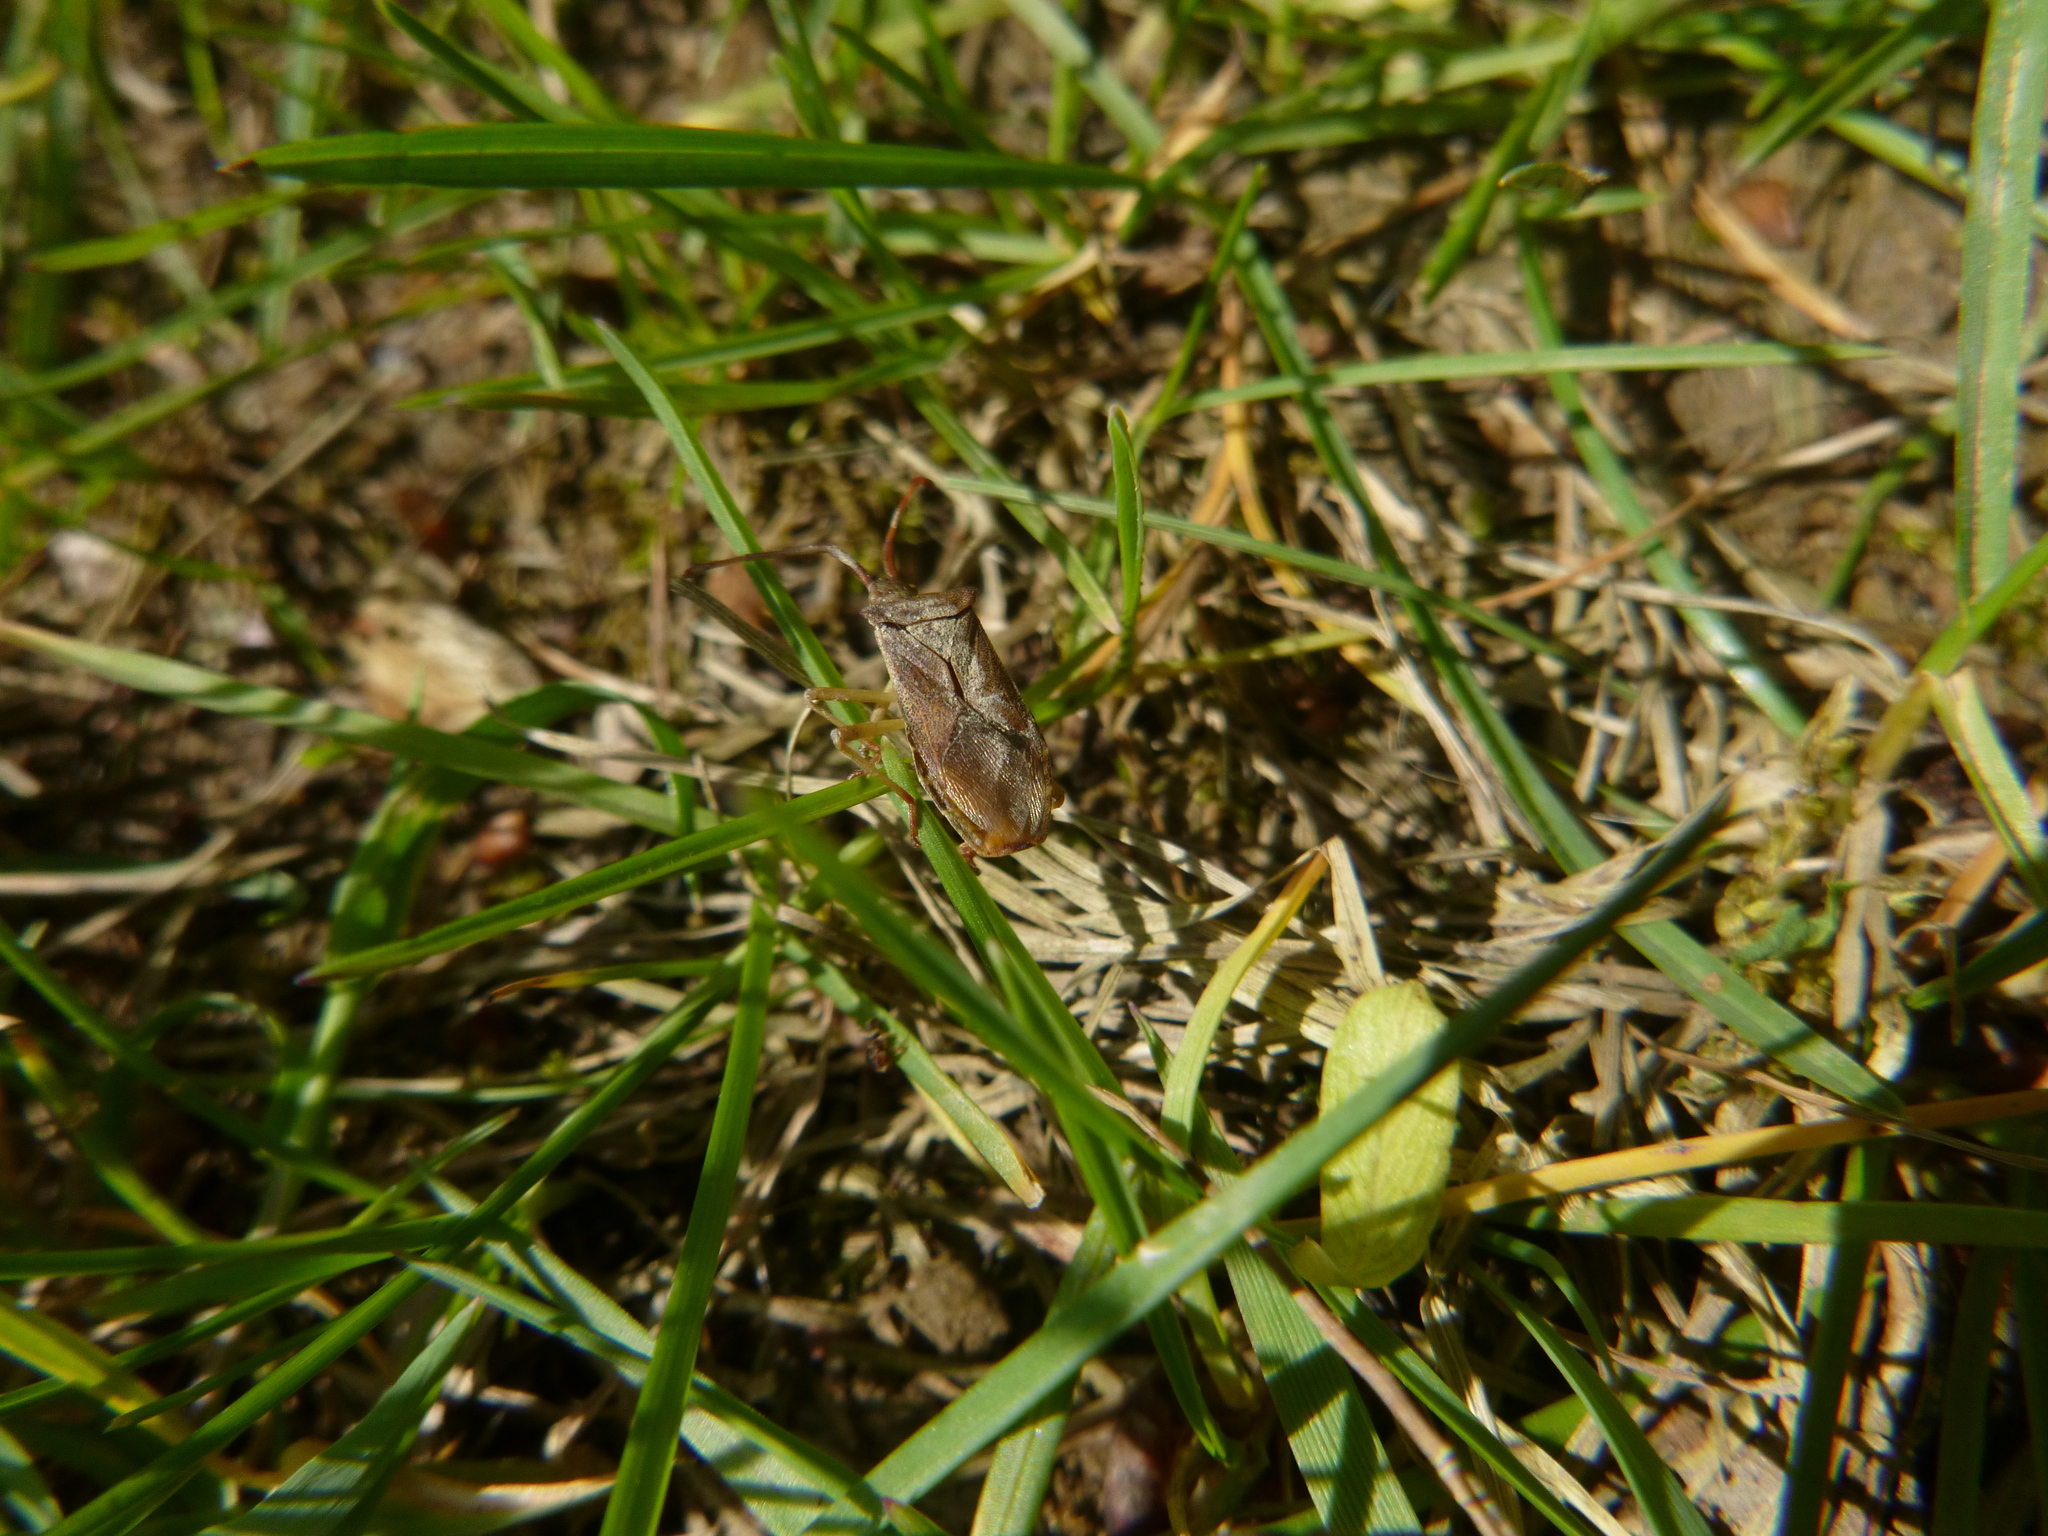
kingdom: Animalia
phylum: Arthropoda
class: Insecta
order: Hemiptera
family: Coreidae
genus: Gonocerus
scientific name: Gonocerus acuteangulatus
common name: Box bug
